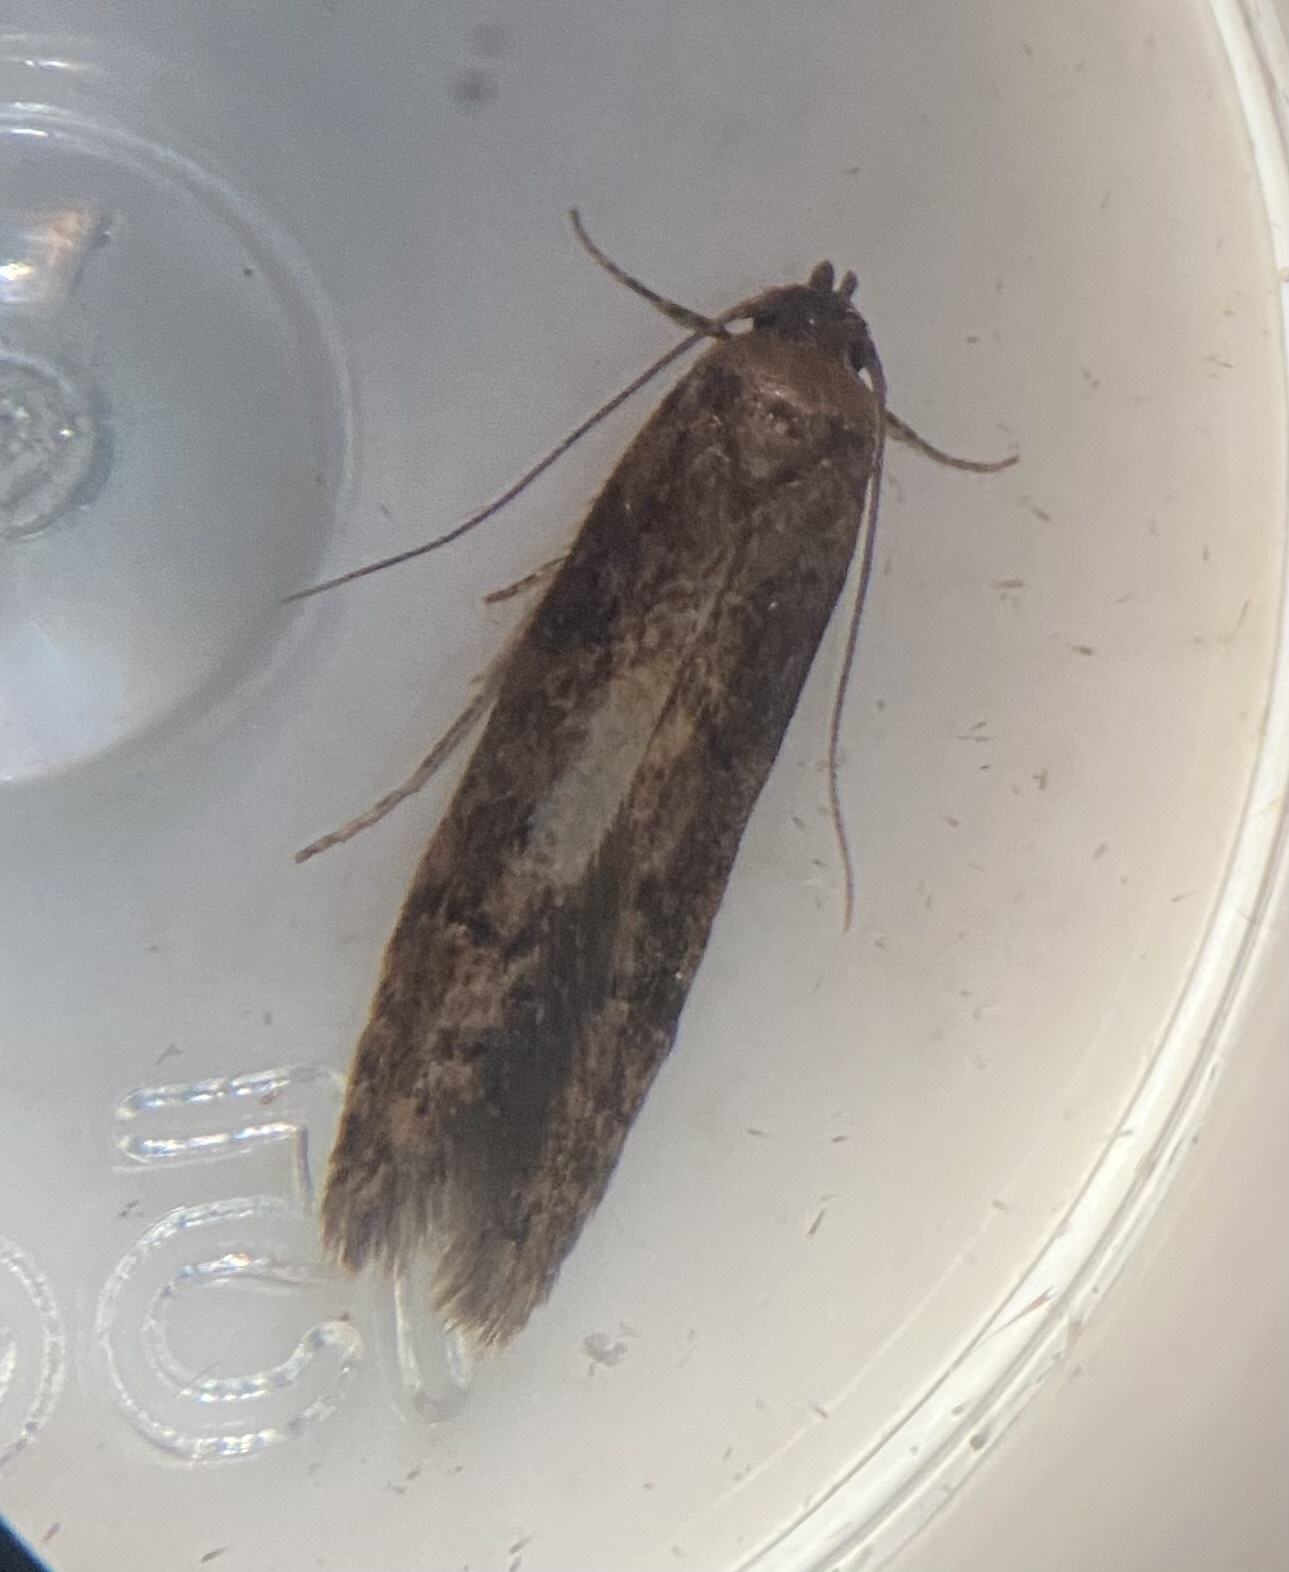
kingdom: Animalia
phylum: Arthropoda
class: Insecta
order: Lepidoptera
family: Blastobasidae
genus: Blastobasis
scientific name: Blastobasis adustella
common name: Dingy dowd
